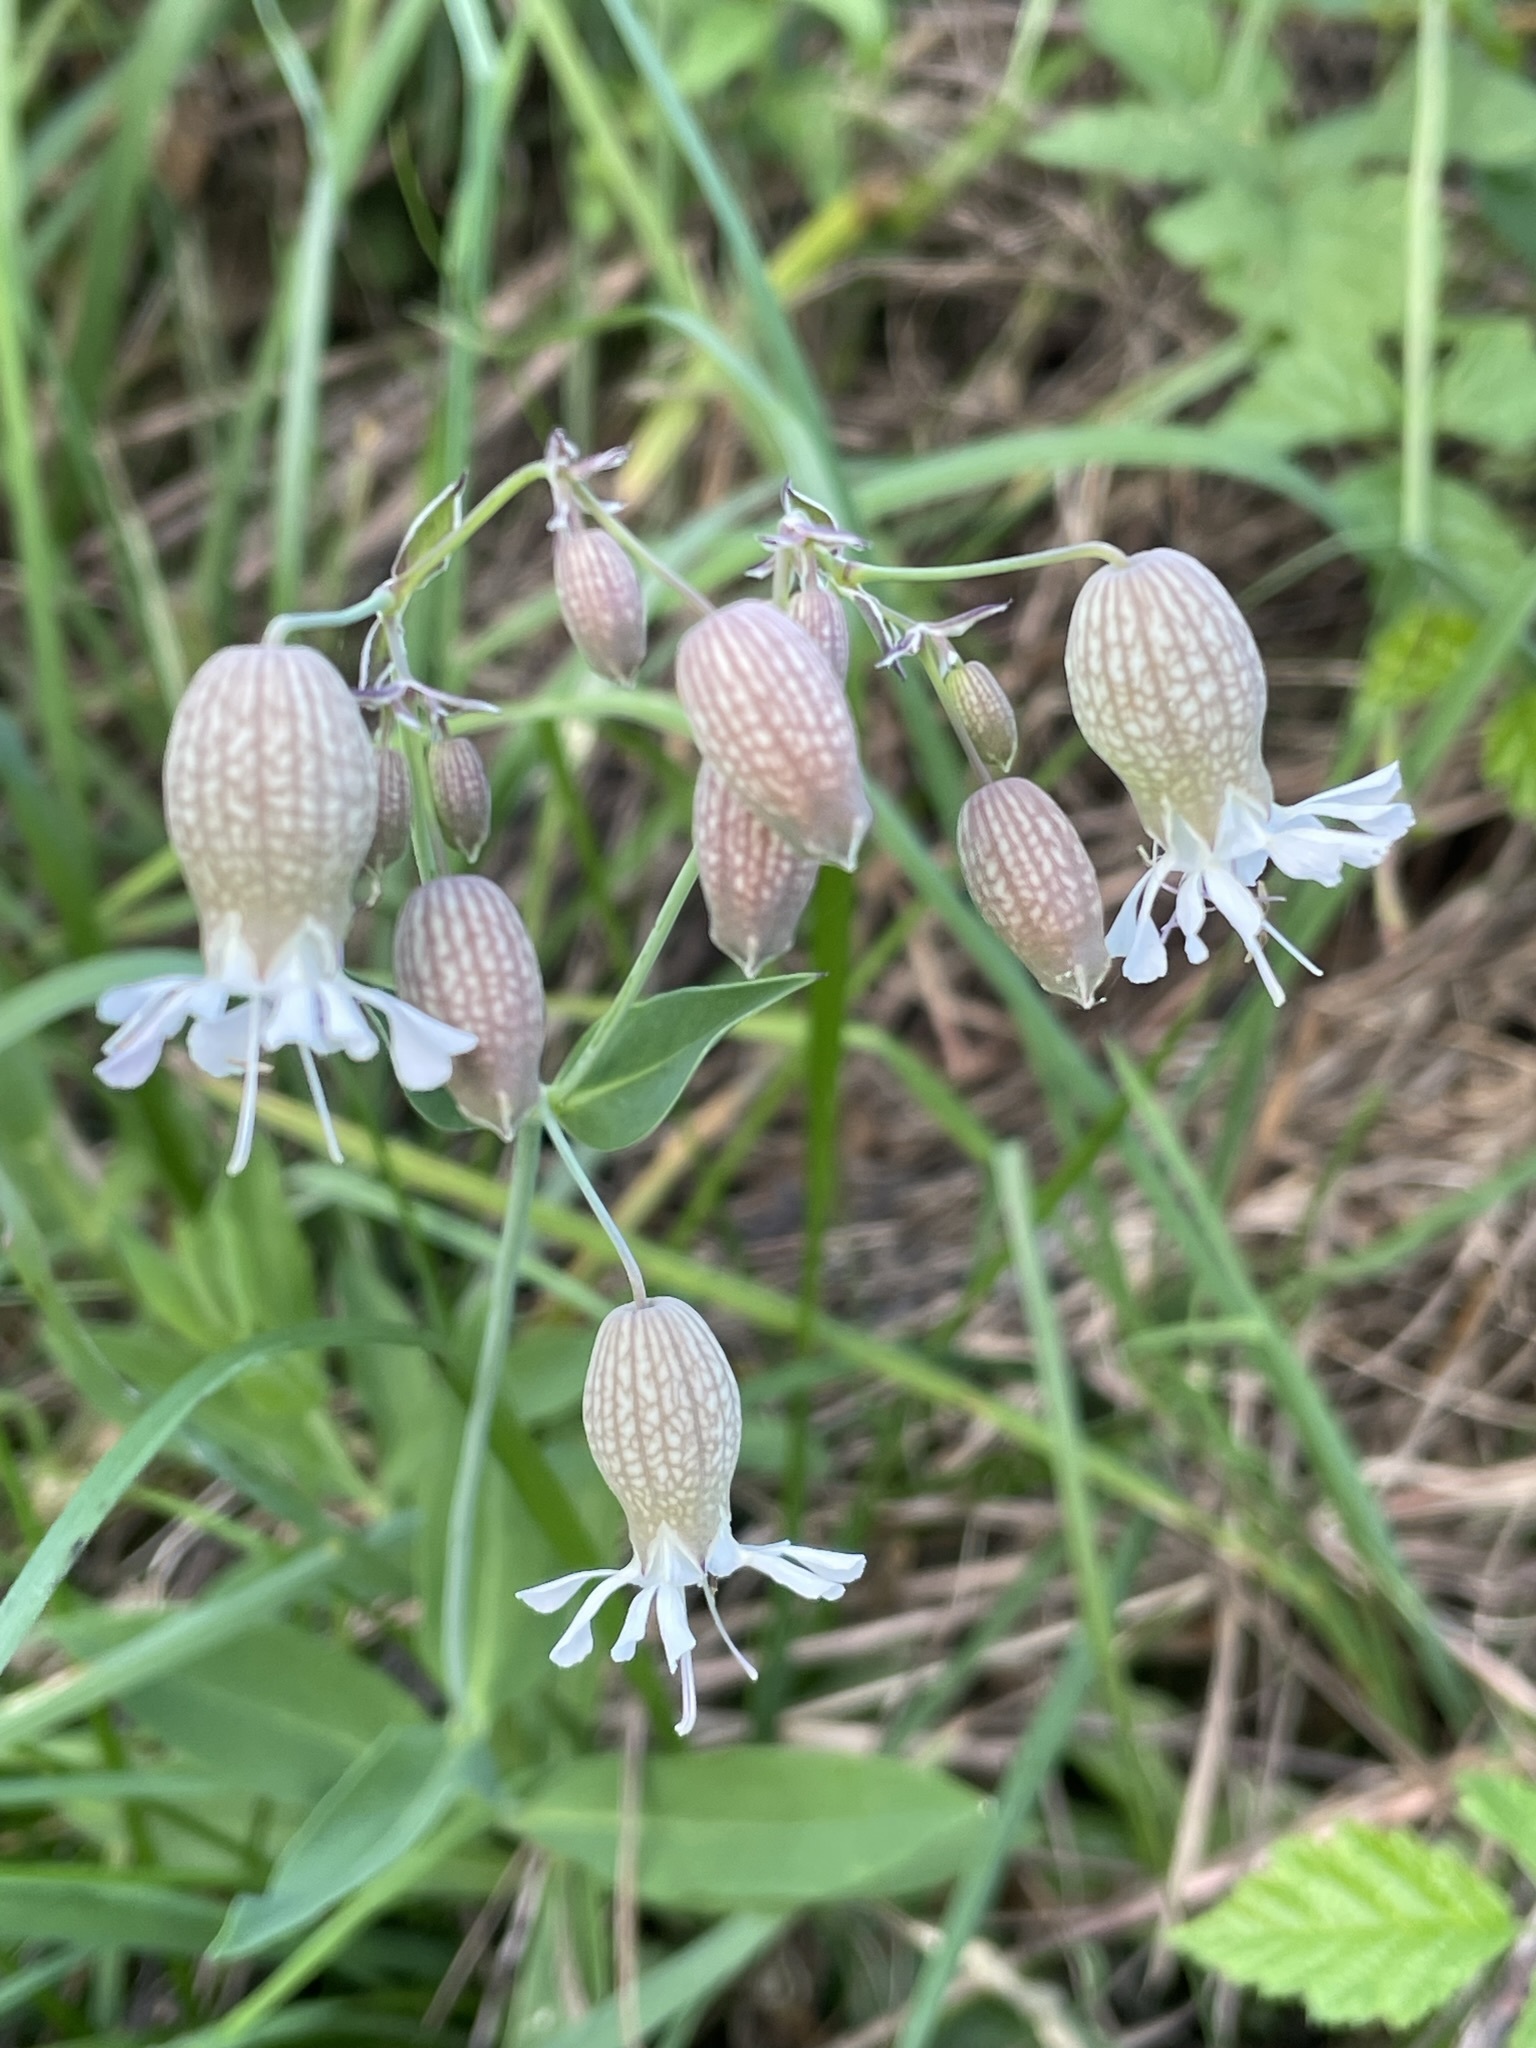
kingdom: Plantae
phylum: Tracheophyta
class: Magnoliopsida
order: Caryophyllales
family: Caryophyllaceae
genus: Silene
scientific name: Silene vulgaris
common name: Bladder campion
